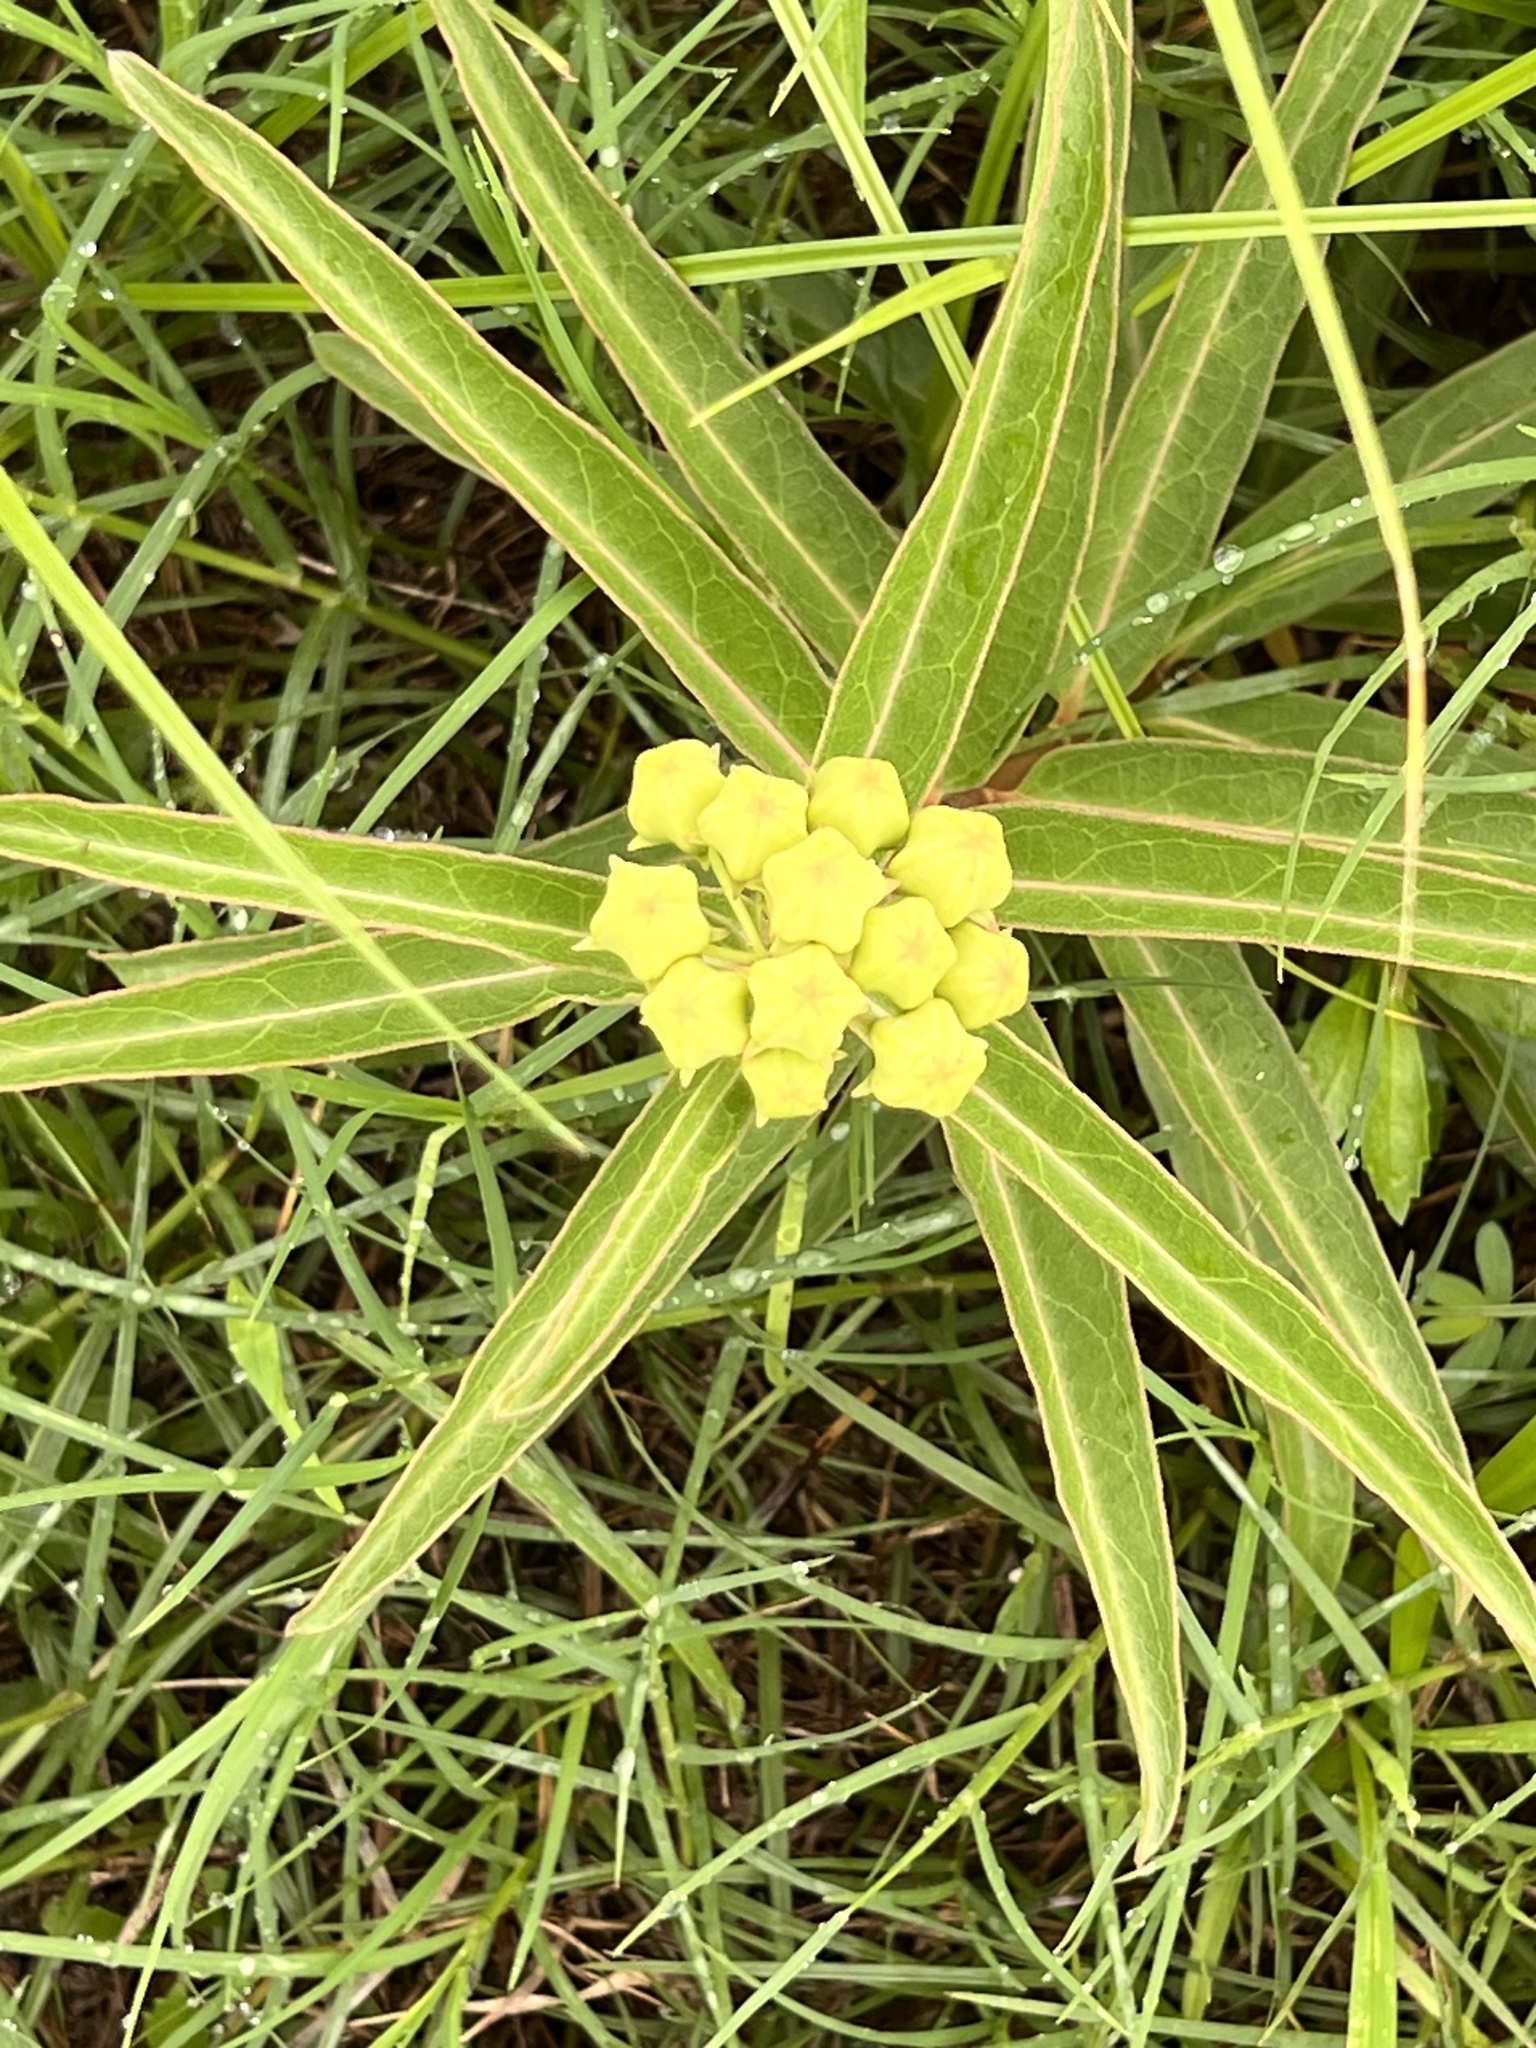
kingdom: Plantae
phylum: Tracheophyta
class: Magnoliopsida
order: Gentianales
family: Apocynaceae
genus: Asclepias
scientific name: Asclepias asperula
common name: Antelope horns
